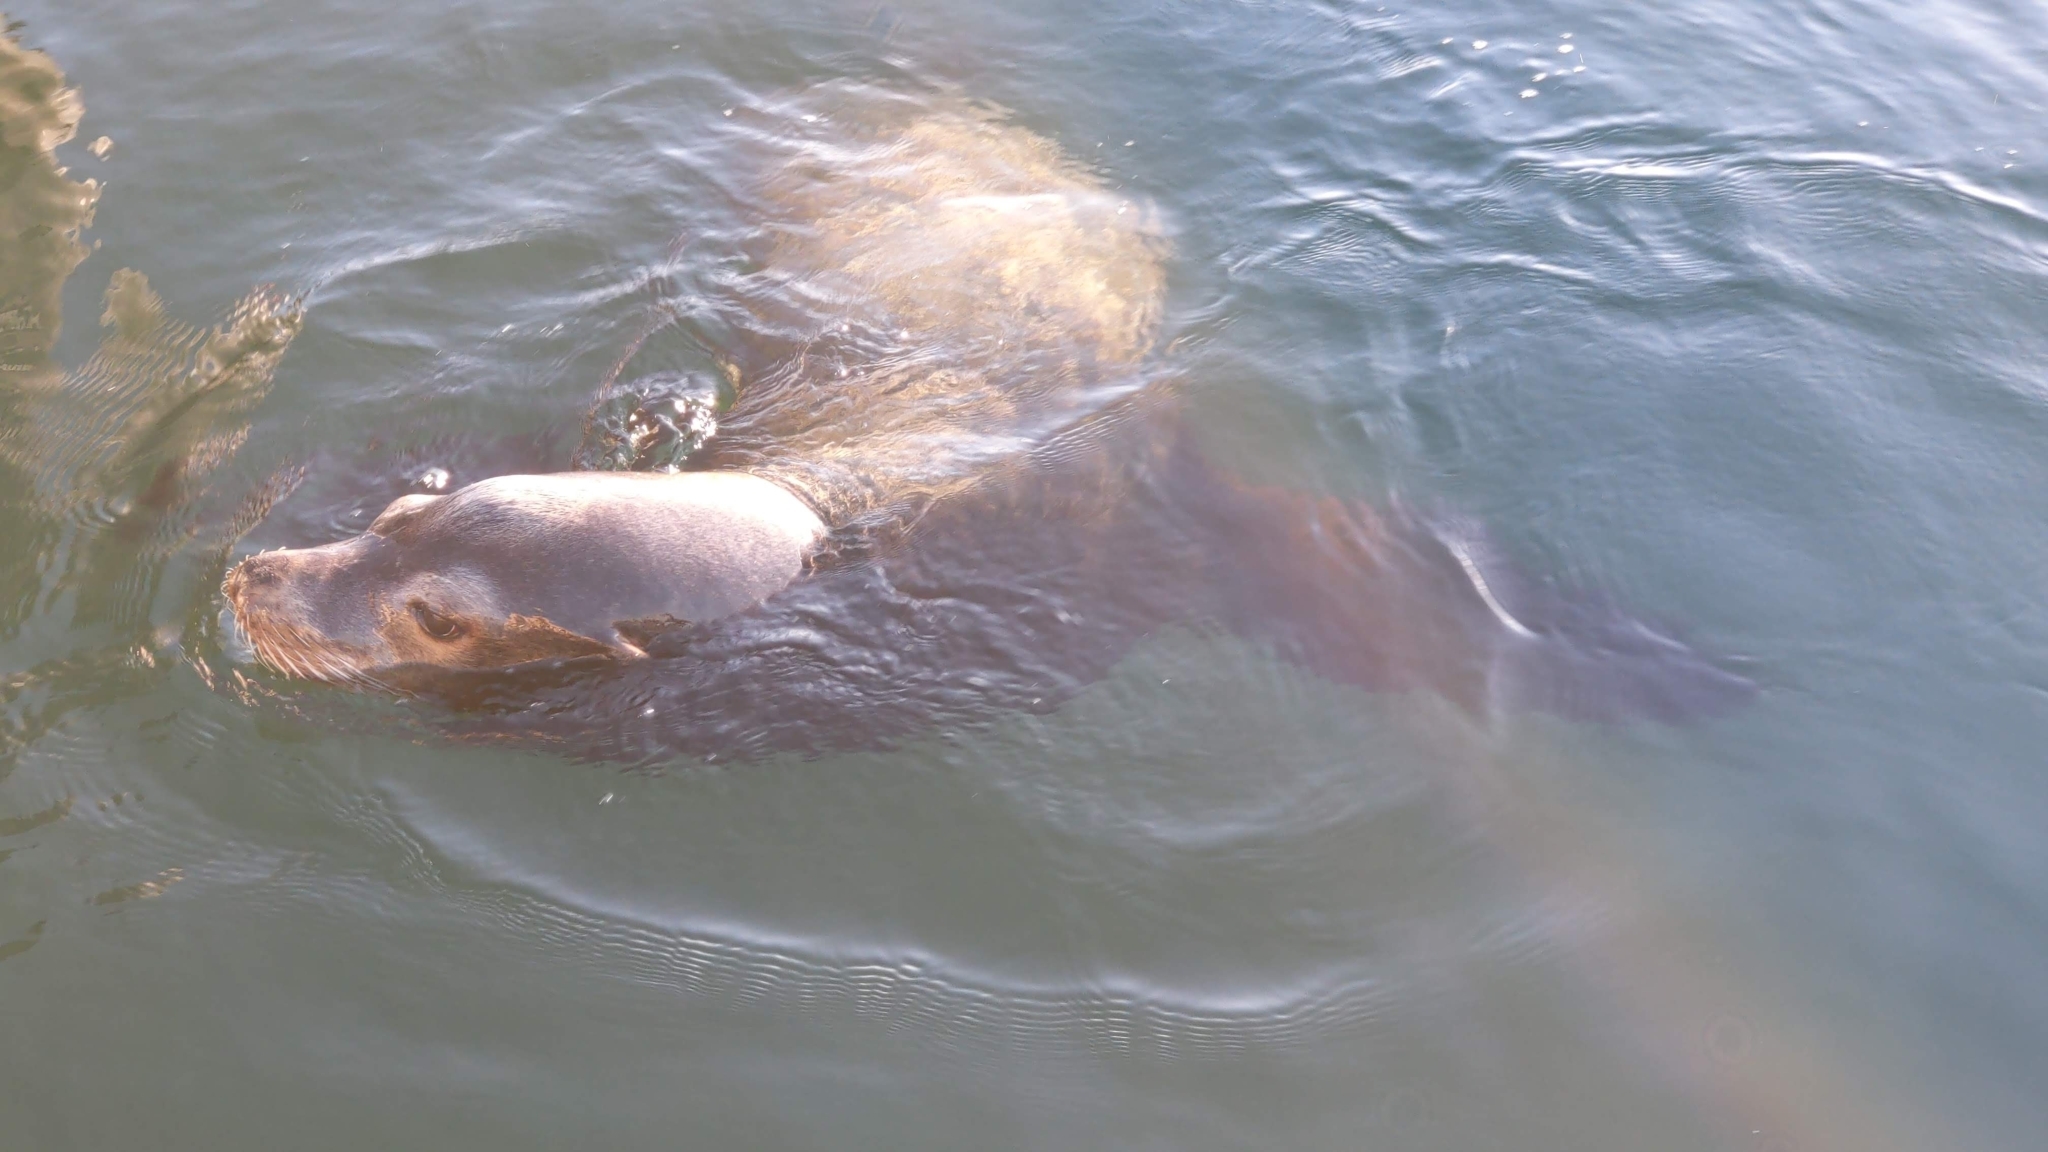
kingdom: Animalia
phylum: Chordata
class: Mammalia
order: Carnivora
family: Otariidae
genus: Zalophus
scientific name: Zalophus californianus
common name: California sea lion
